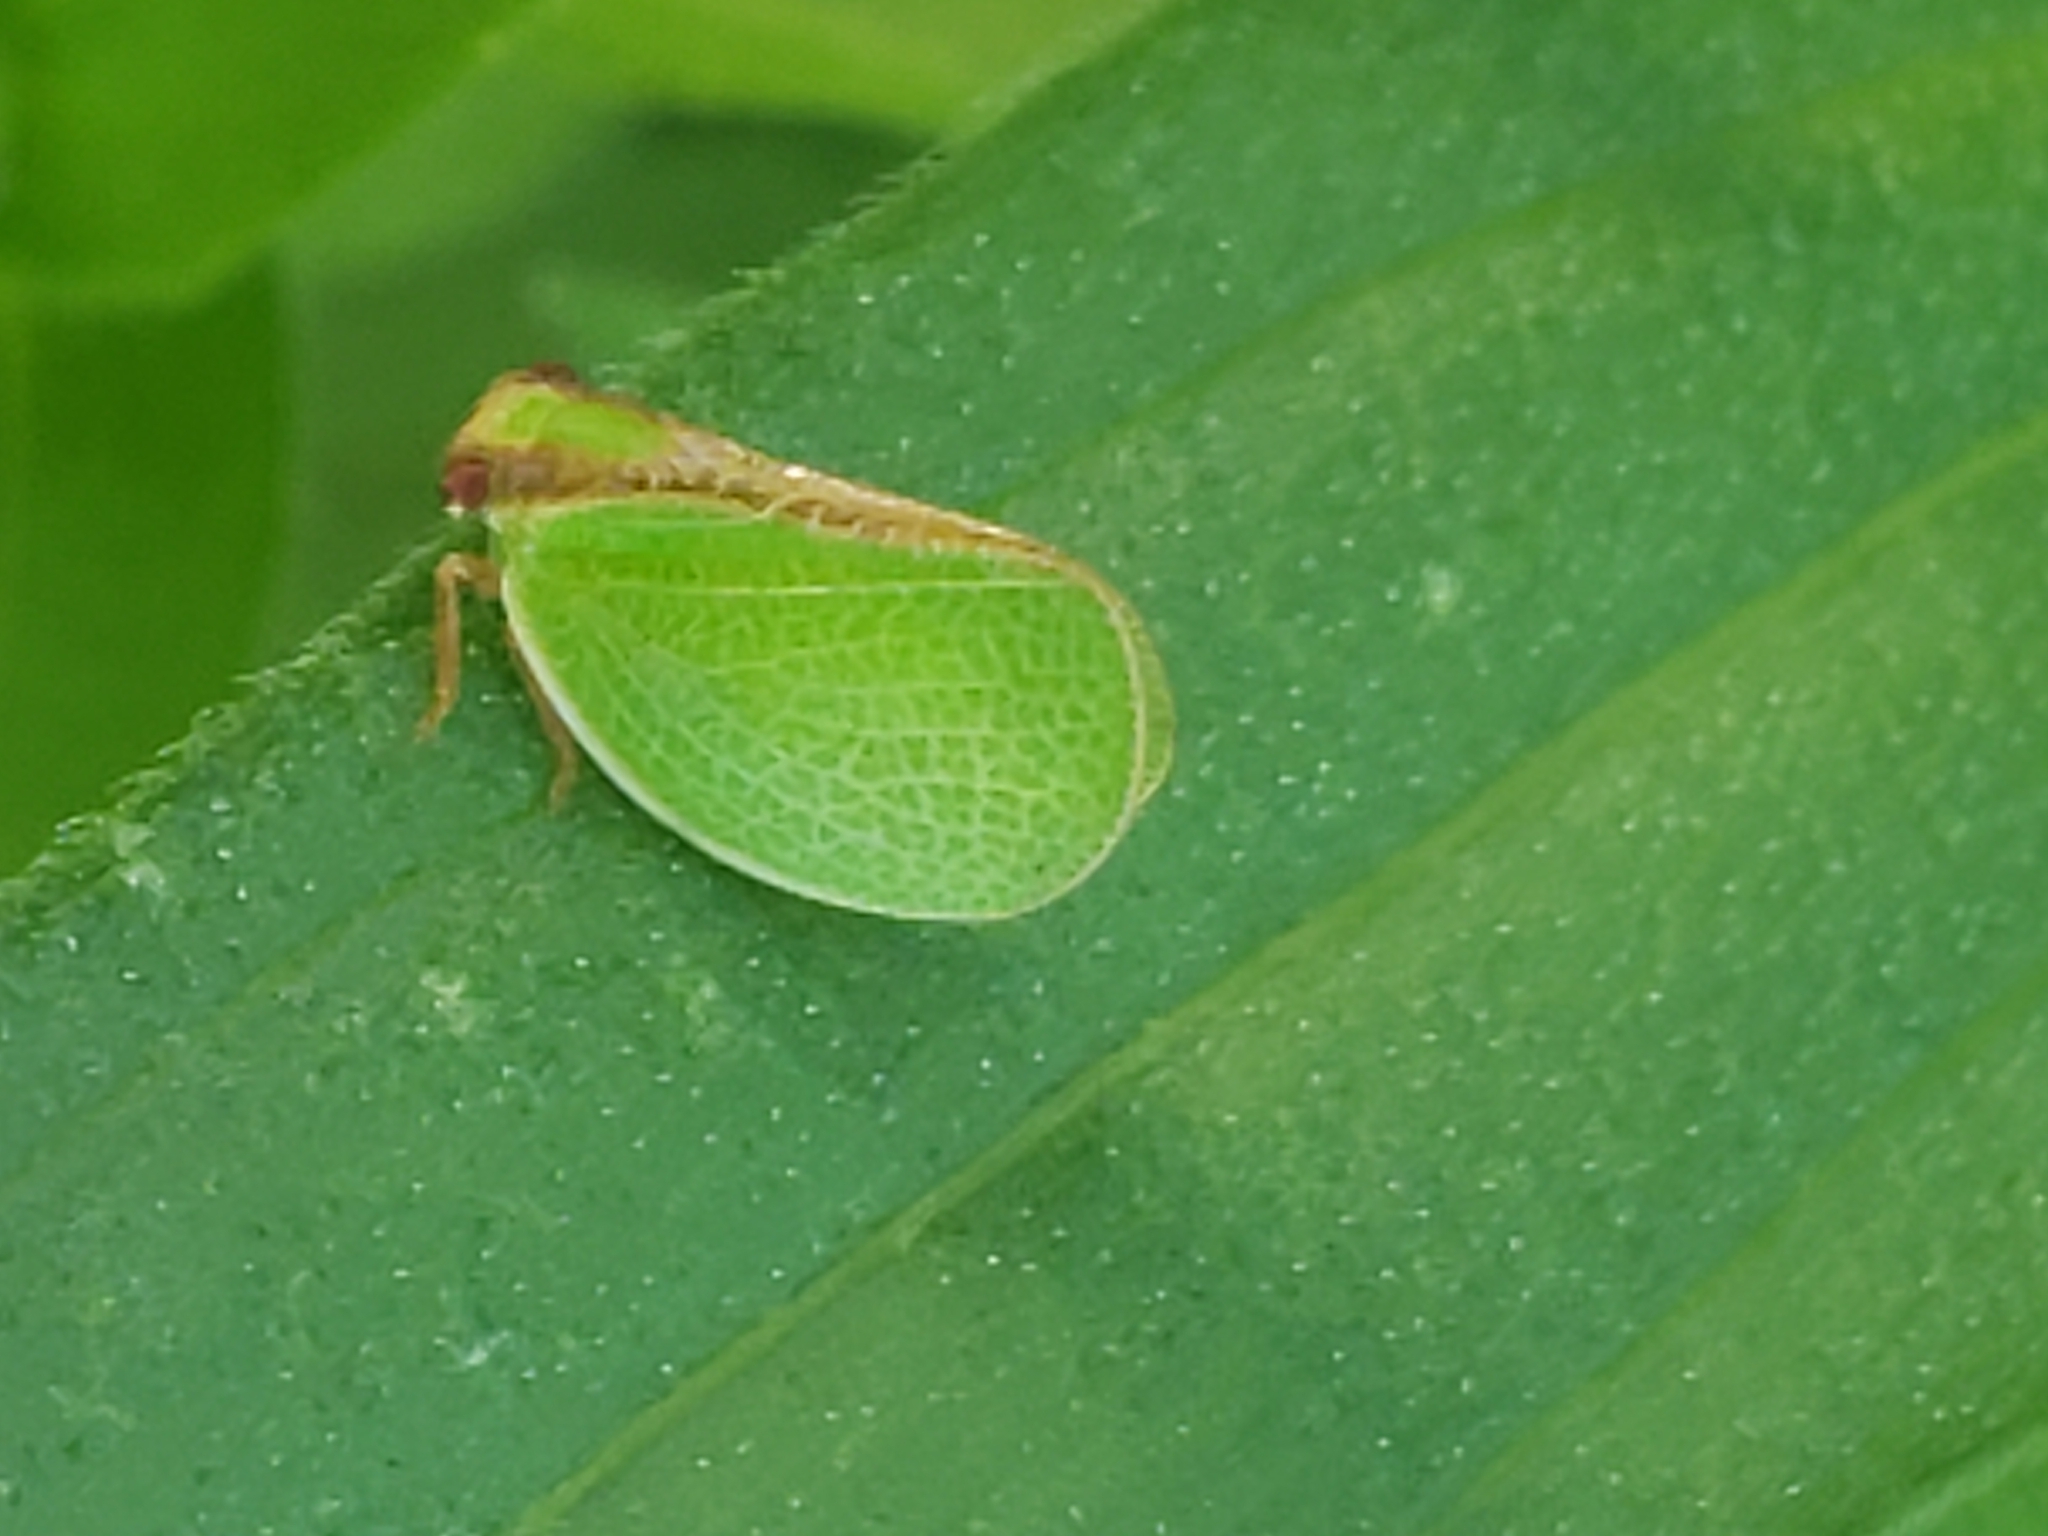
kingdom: Animalia
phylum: Arthropoda
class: Insecta
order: Hemiptera
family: Acanaloniidae
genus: Acanalonia
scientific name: Acanalonia bivittata
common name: Two-striped planthopper
